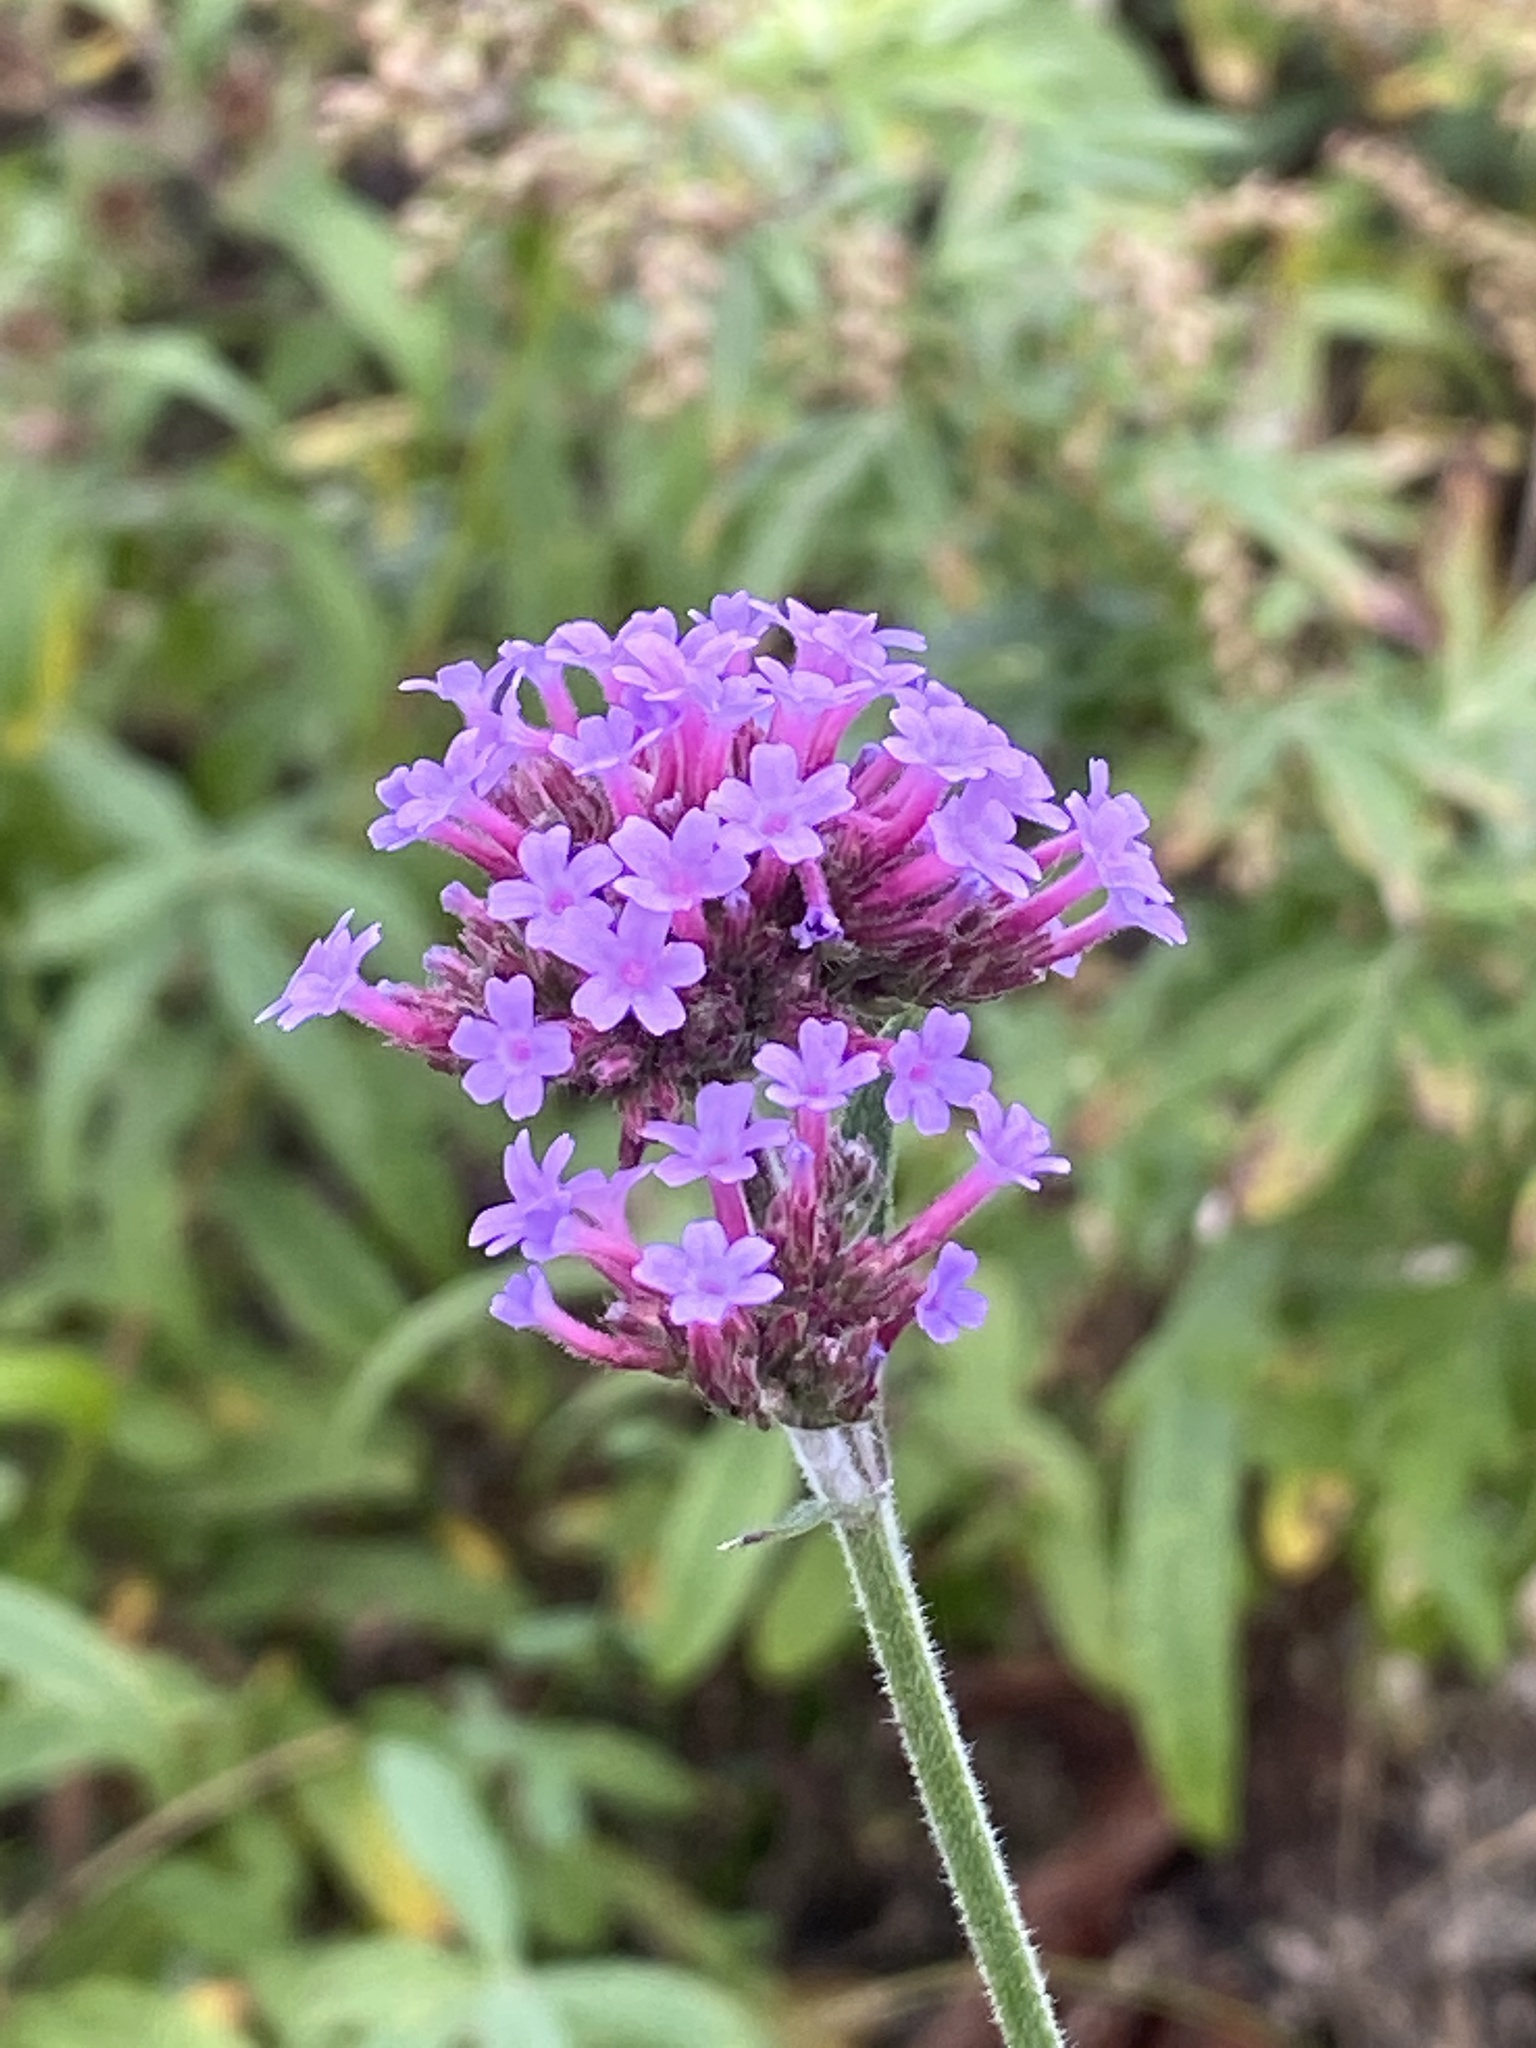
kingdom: Plantae
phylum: Tracheophyta
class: Magnoliopsida
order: Lamiales
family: Verbenaceae
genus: Verbena
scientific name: Verbena bonariensis
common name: Purpletop vervain
